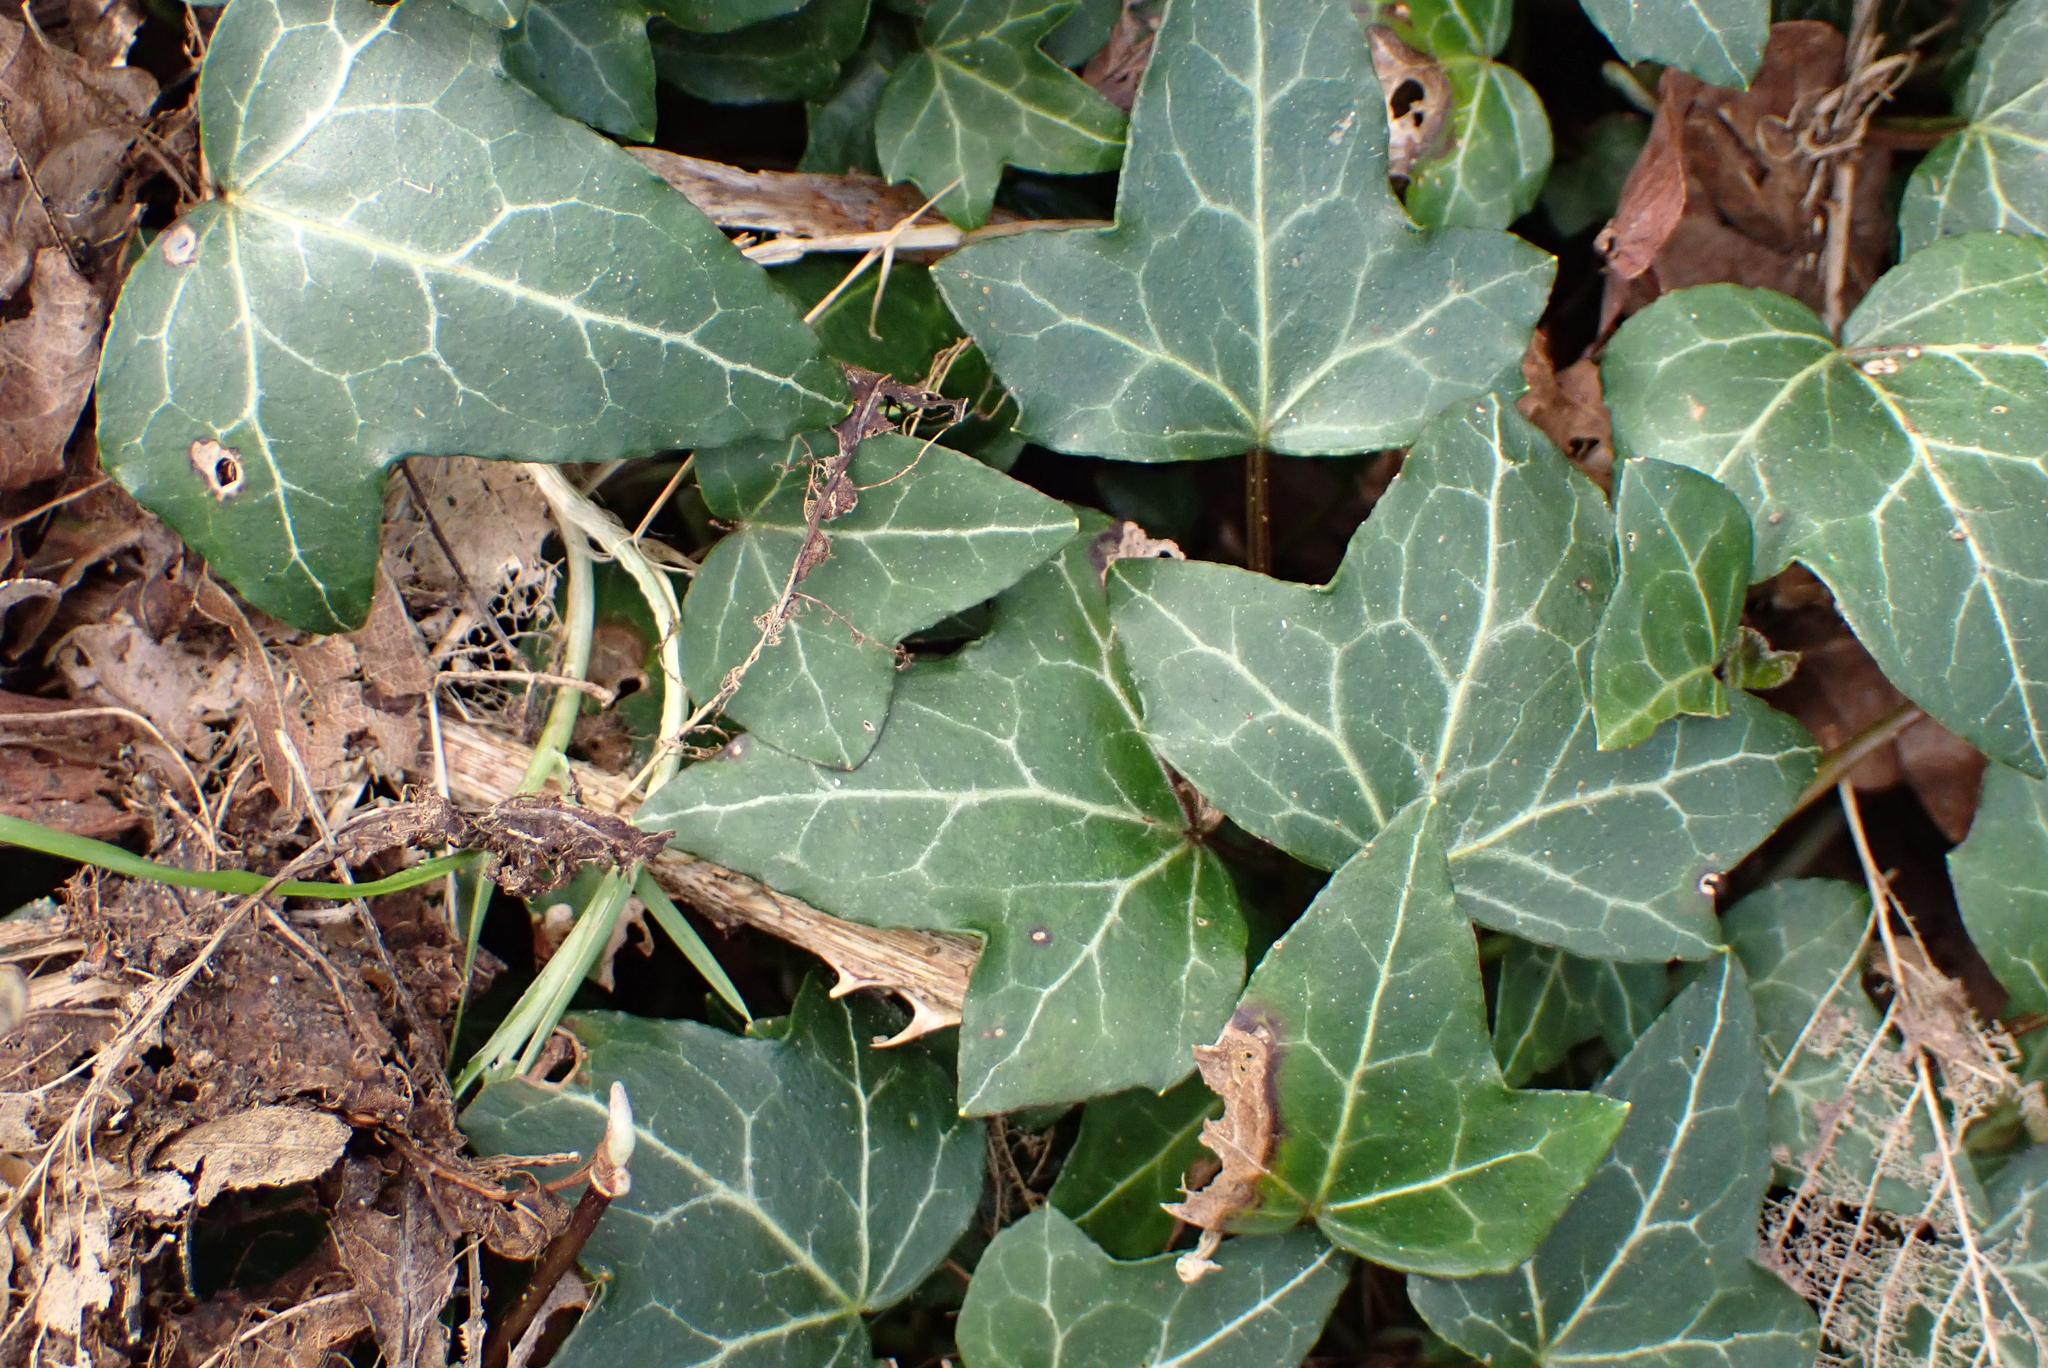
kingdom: Plantae
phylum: Tracheophyta
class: Magnoliopsida
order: Apiales
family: Araliaceae
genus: Hedera
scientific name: Hedera helix
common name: Ivy
